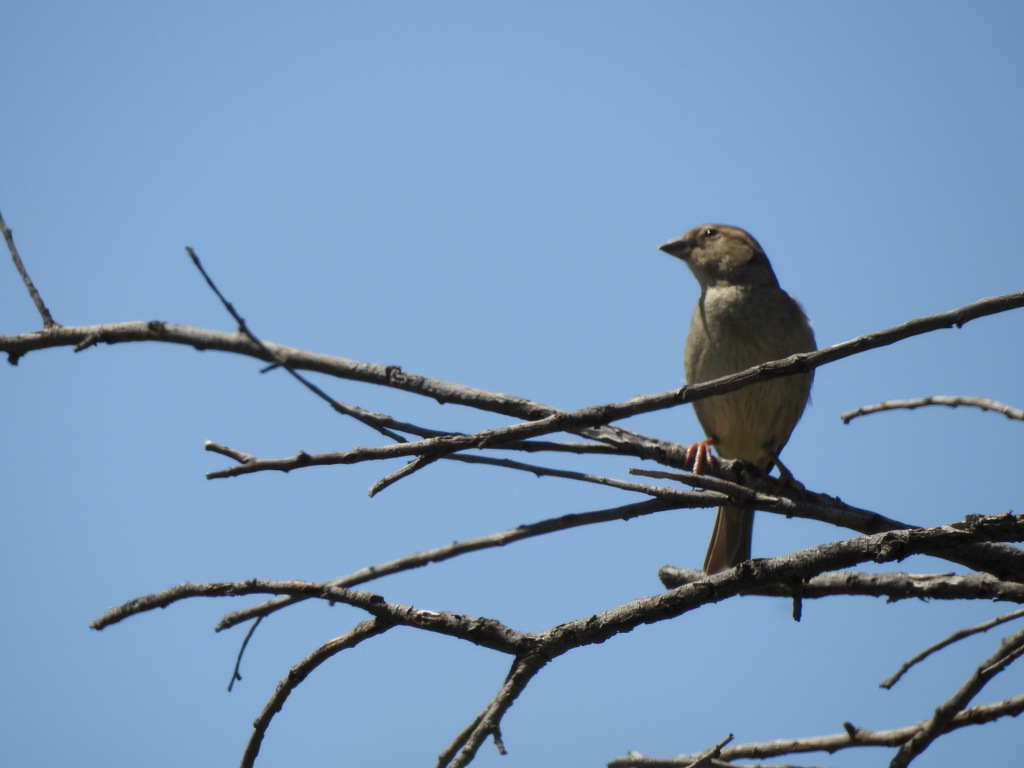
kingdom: Animalia
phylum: Chordata
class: Aves
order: Passeriformes
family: Passeridae
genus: Passer
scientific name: Passer domesticus
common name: House sparrow
